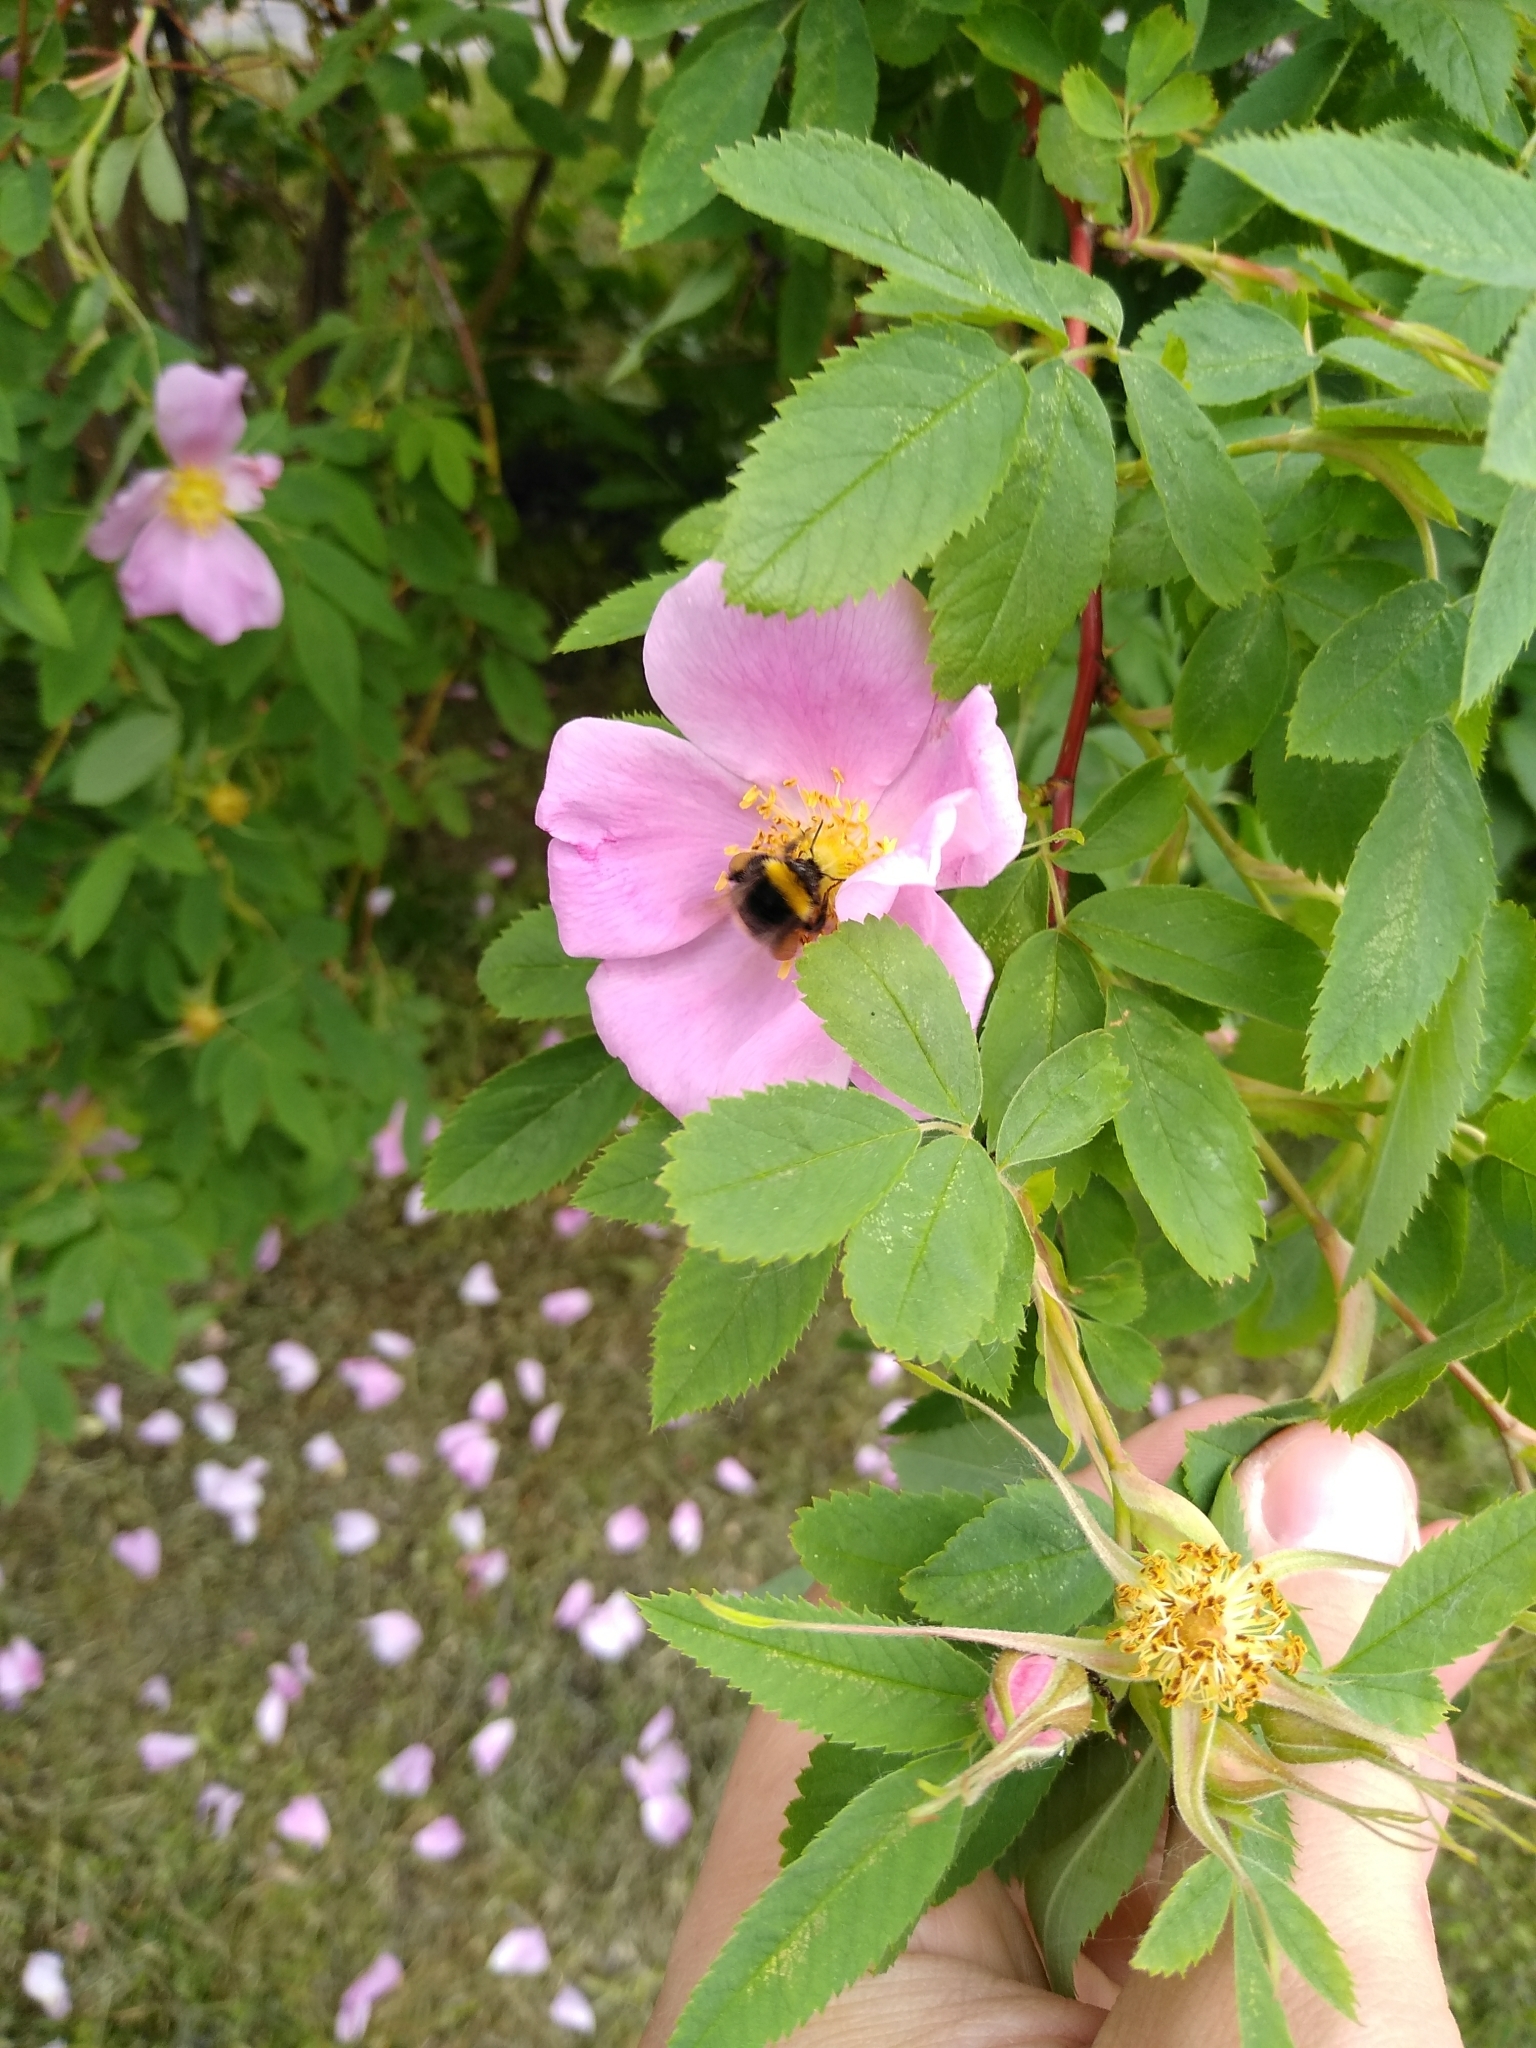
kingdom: Animalia
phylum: Arthropoda
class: Insecta
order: Hymenoptera
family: Apidae
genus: Bombus
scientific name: Bombus
